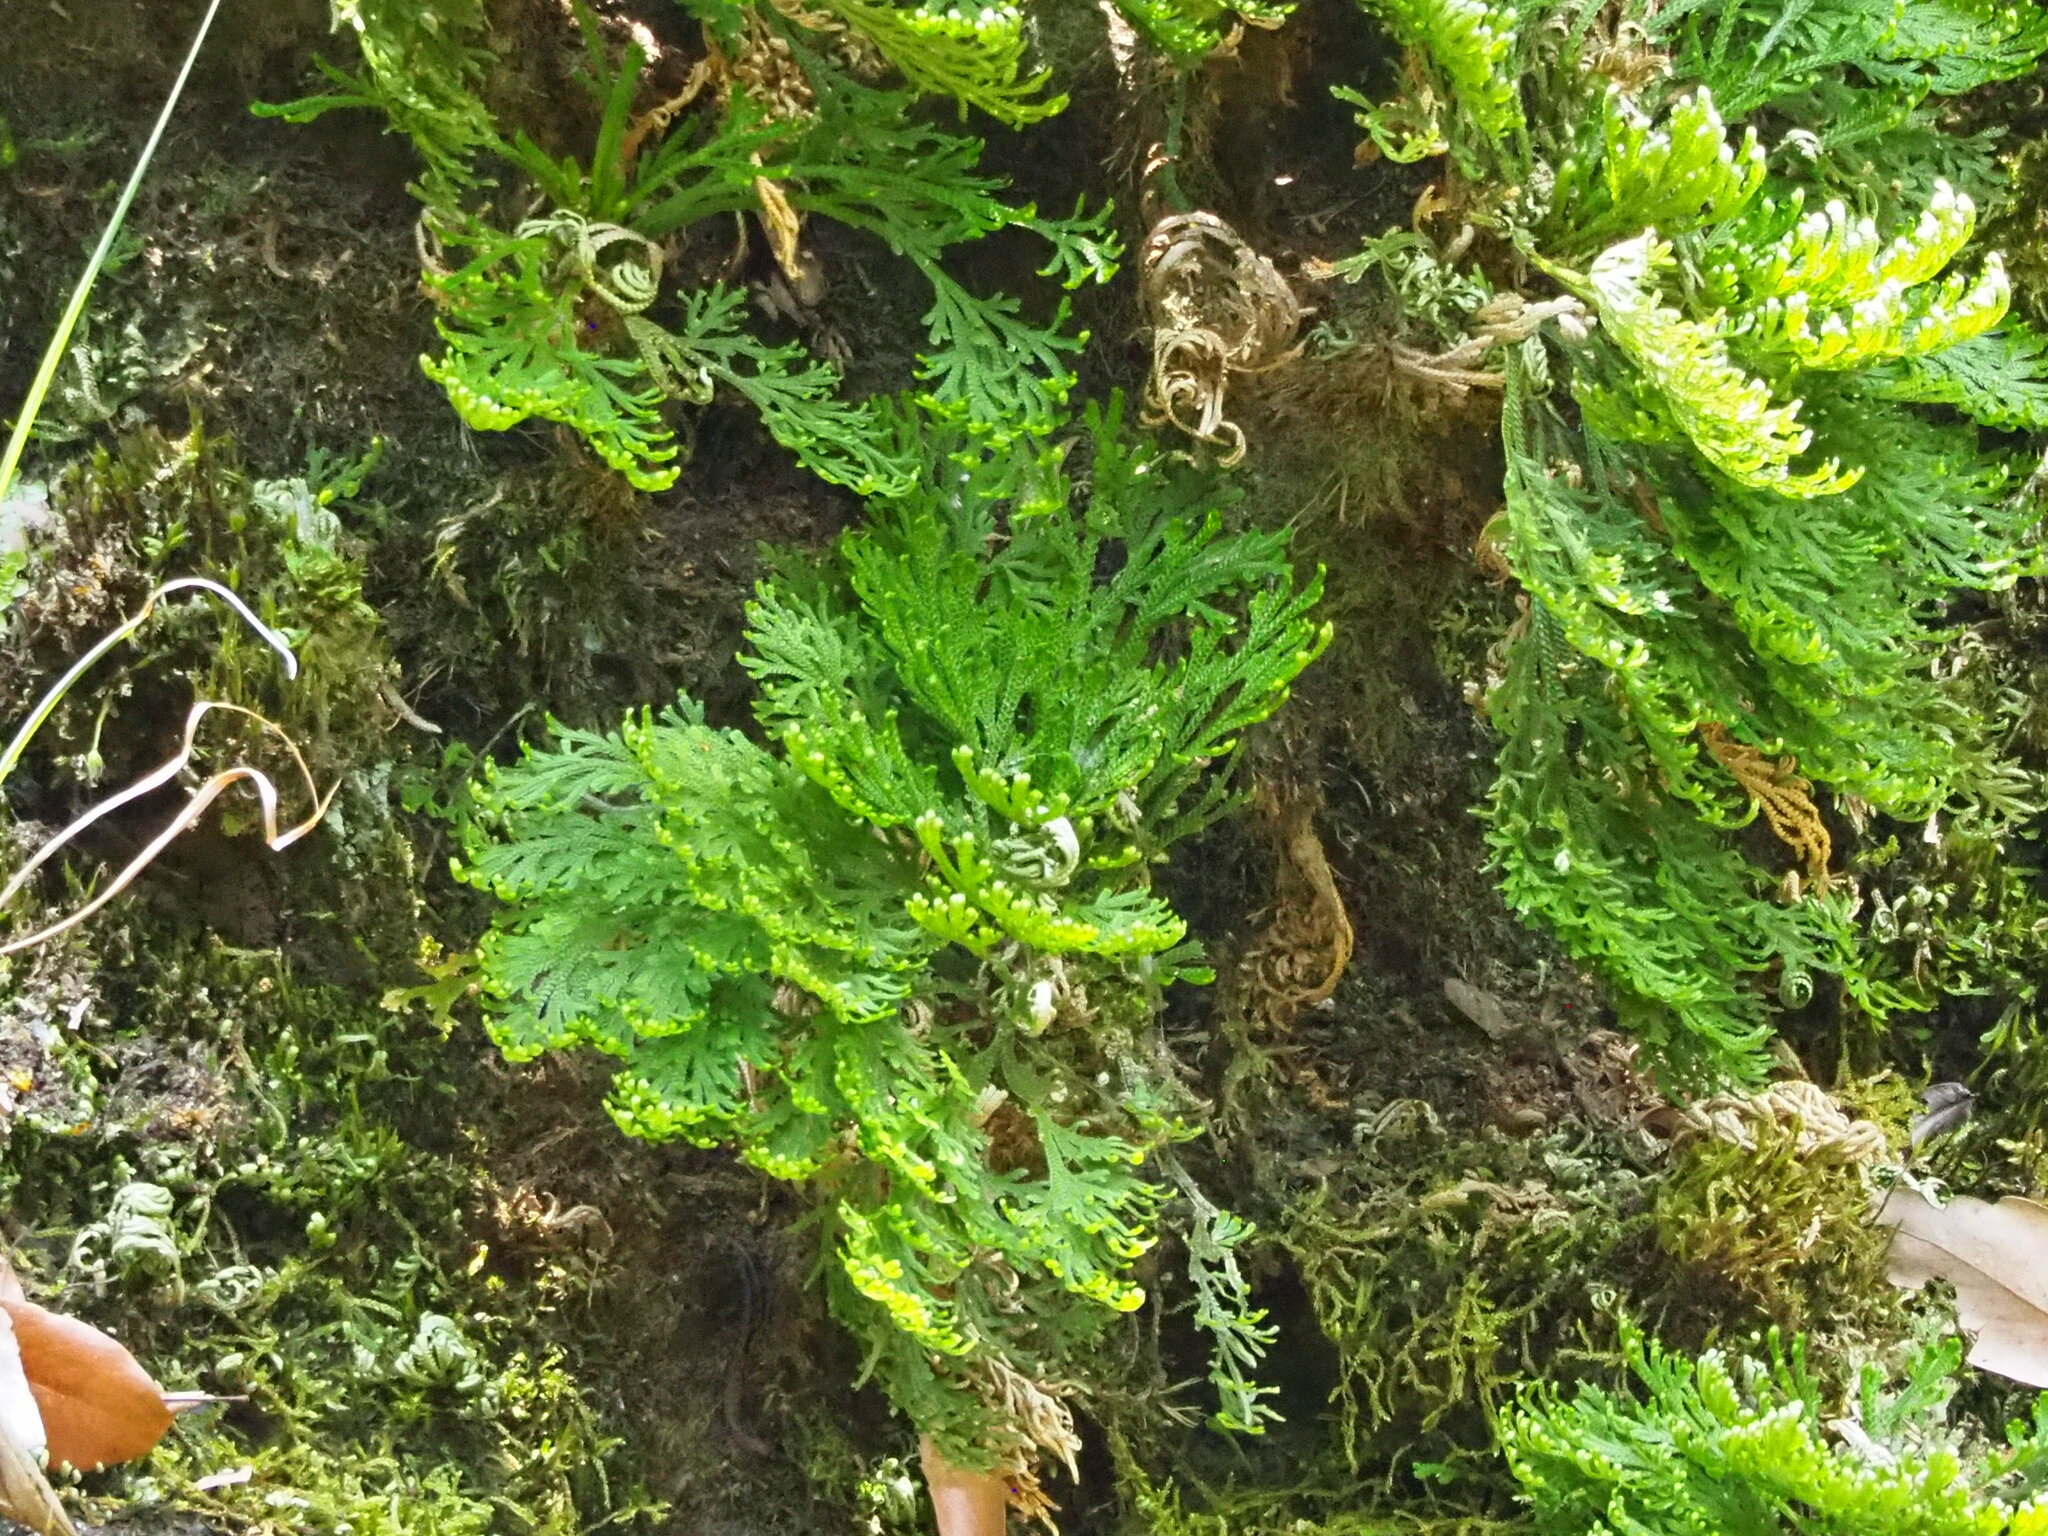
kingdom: Plantae
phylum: Tracheophyta
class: Lycopodiopsida
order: Selaginellales
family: Selaginellaceae
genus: Selaginella
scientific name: Selaginella tamariscina
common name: Little-club-moss
